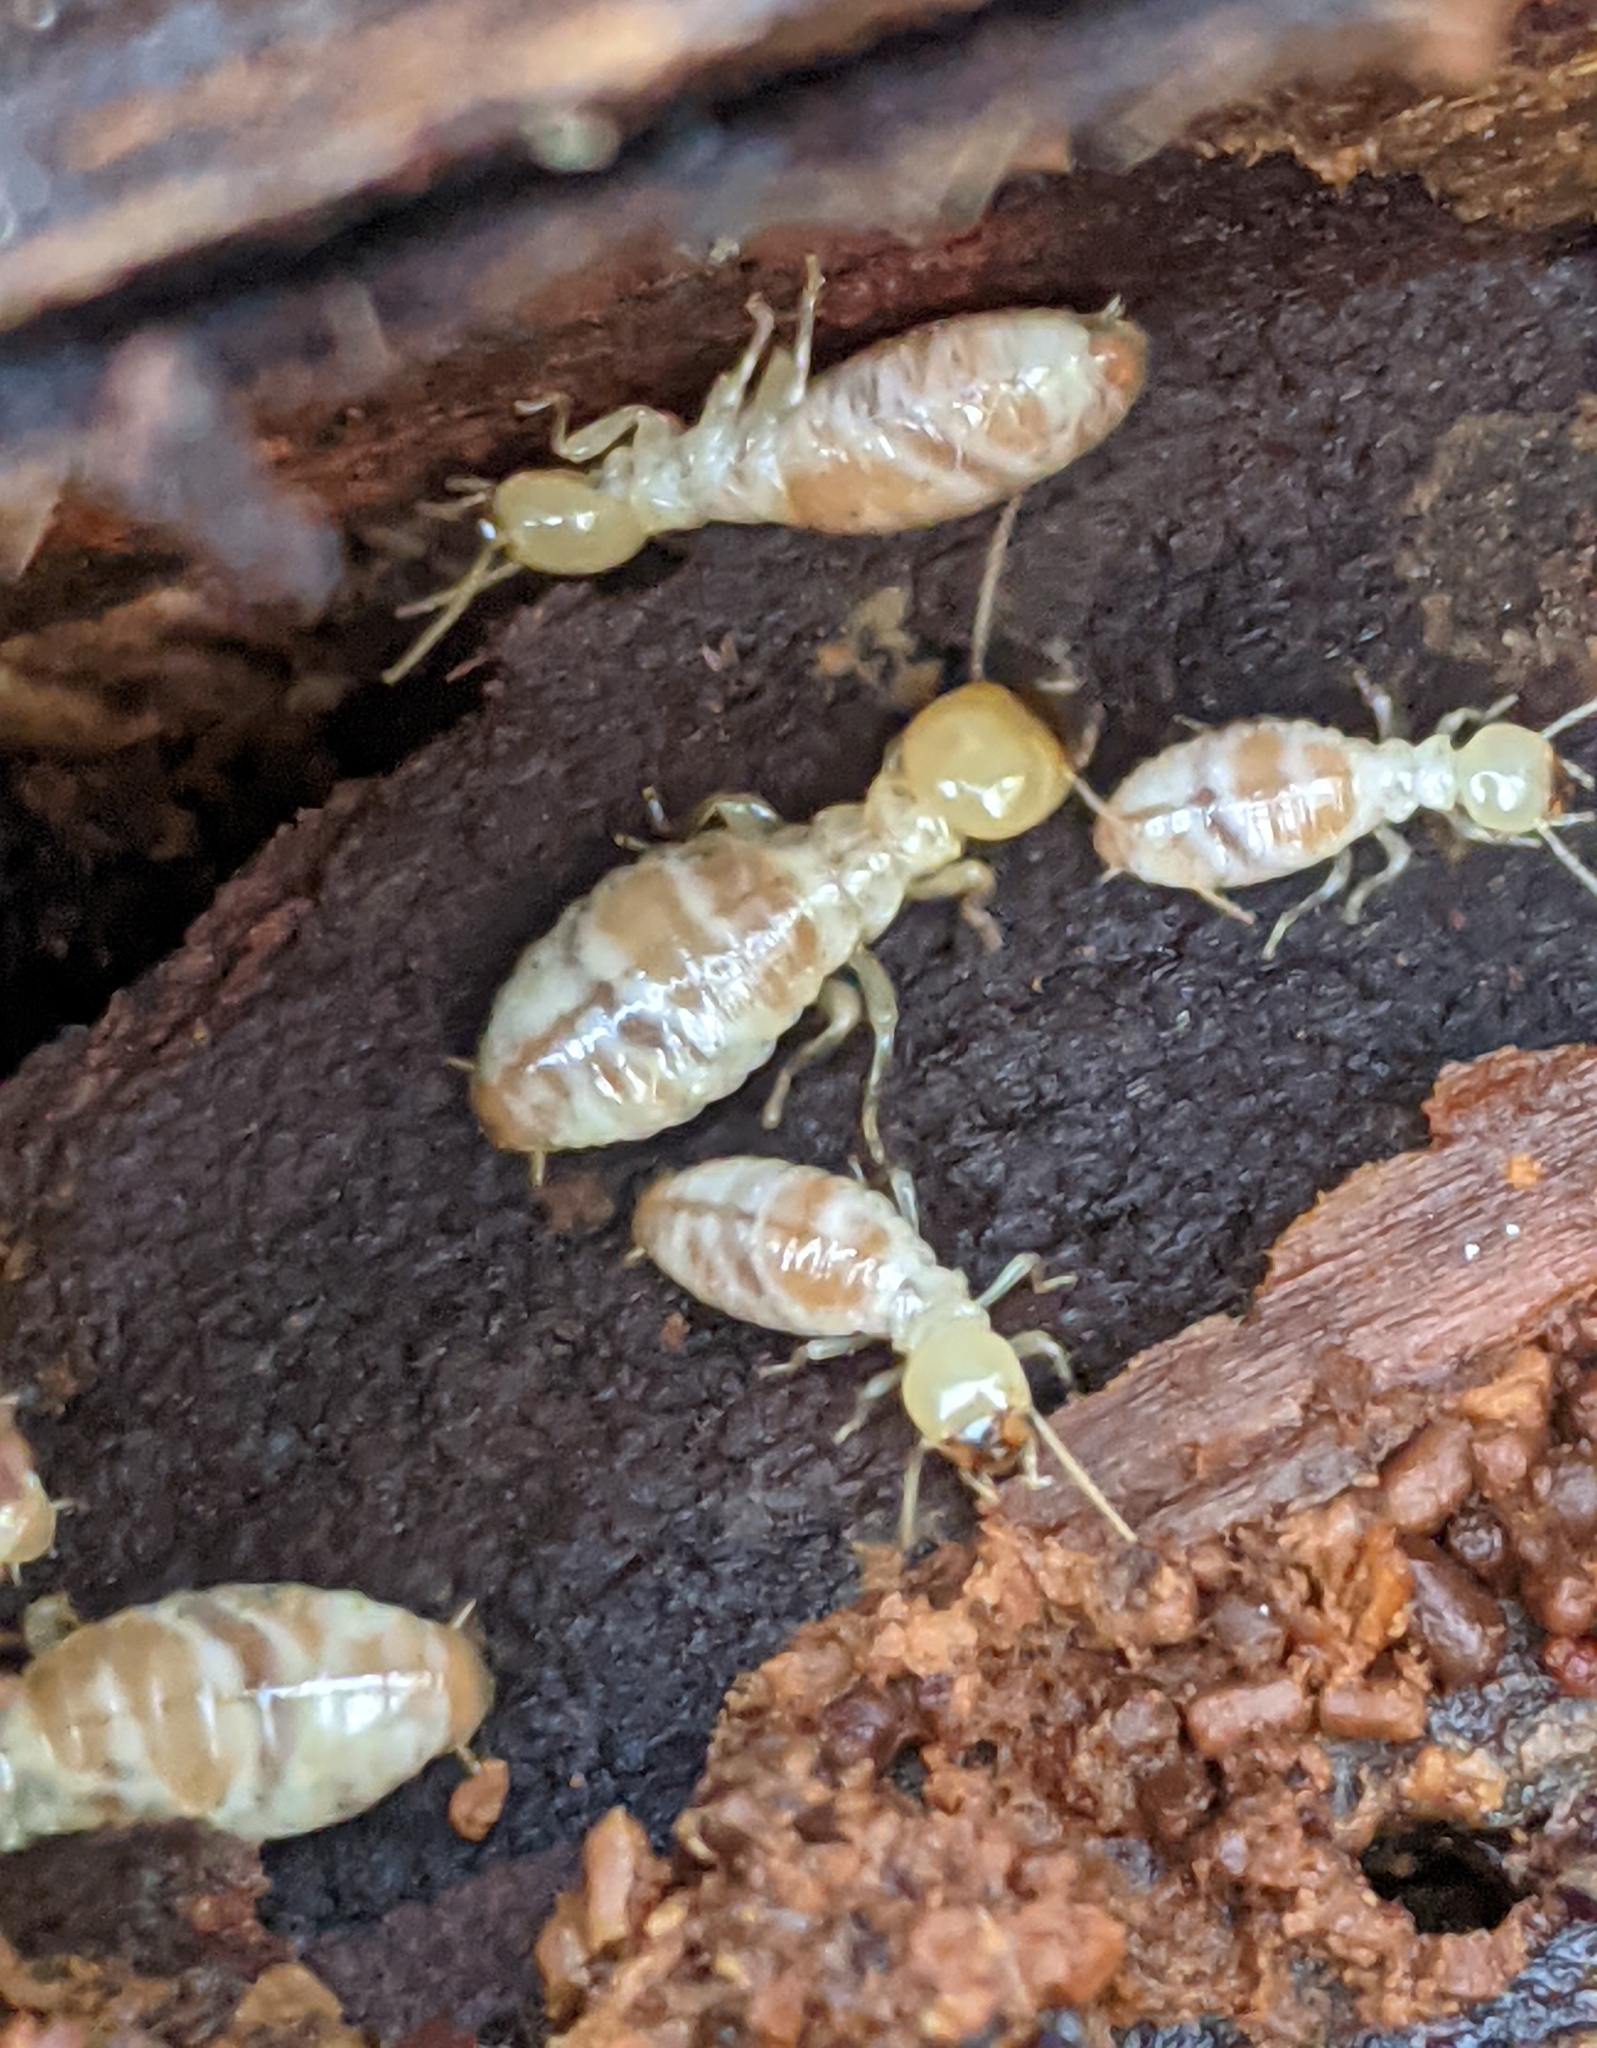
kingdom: Animalia
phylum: Arthropoda
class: Insecta
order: Blattodea
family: Archotermopsidae
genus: Zootermopsis
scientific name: Zootermopsis
